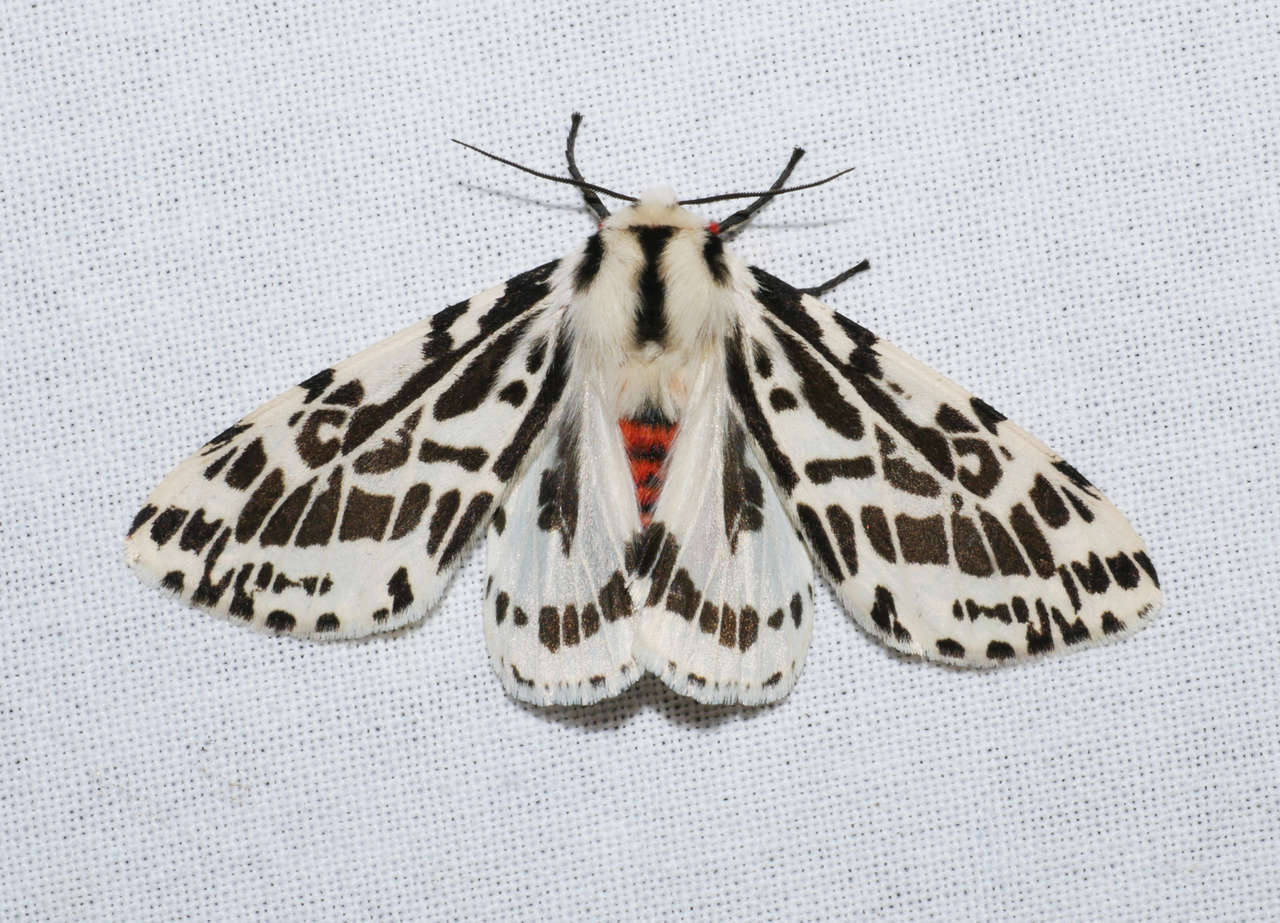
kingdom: Animalia
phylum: Arthropoda
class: Insecta
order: Lepidoptera
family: Erebidae
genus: Ardices
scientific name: Ardices glatignyi
